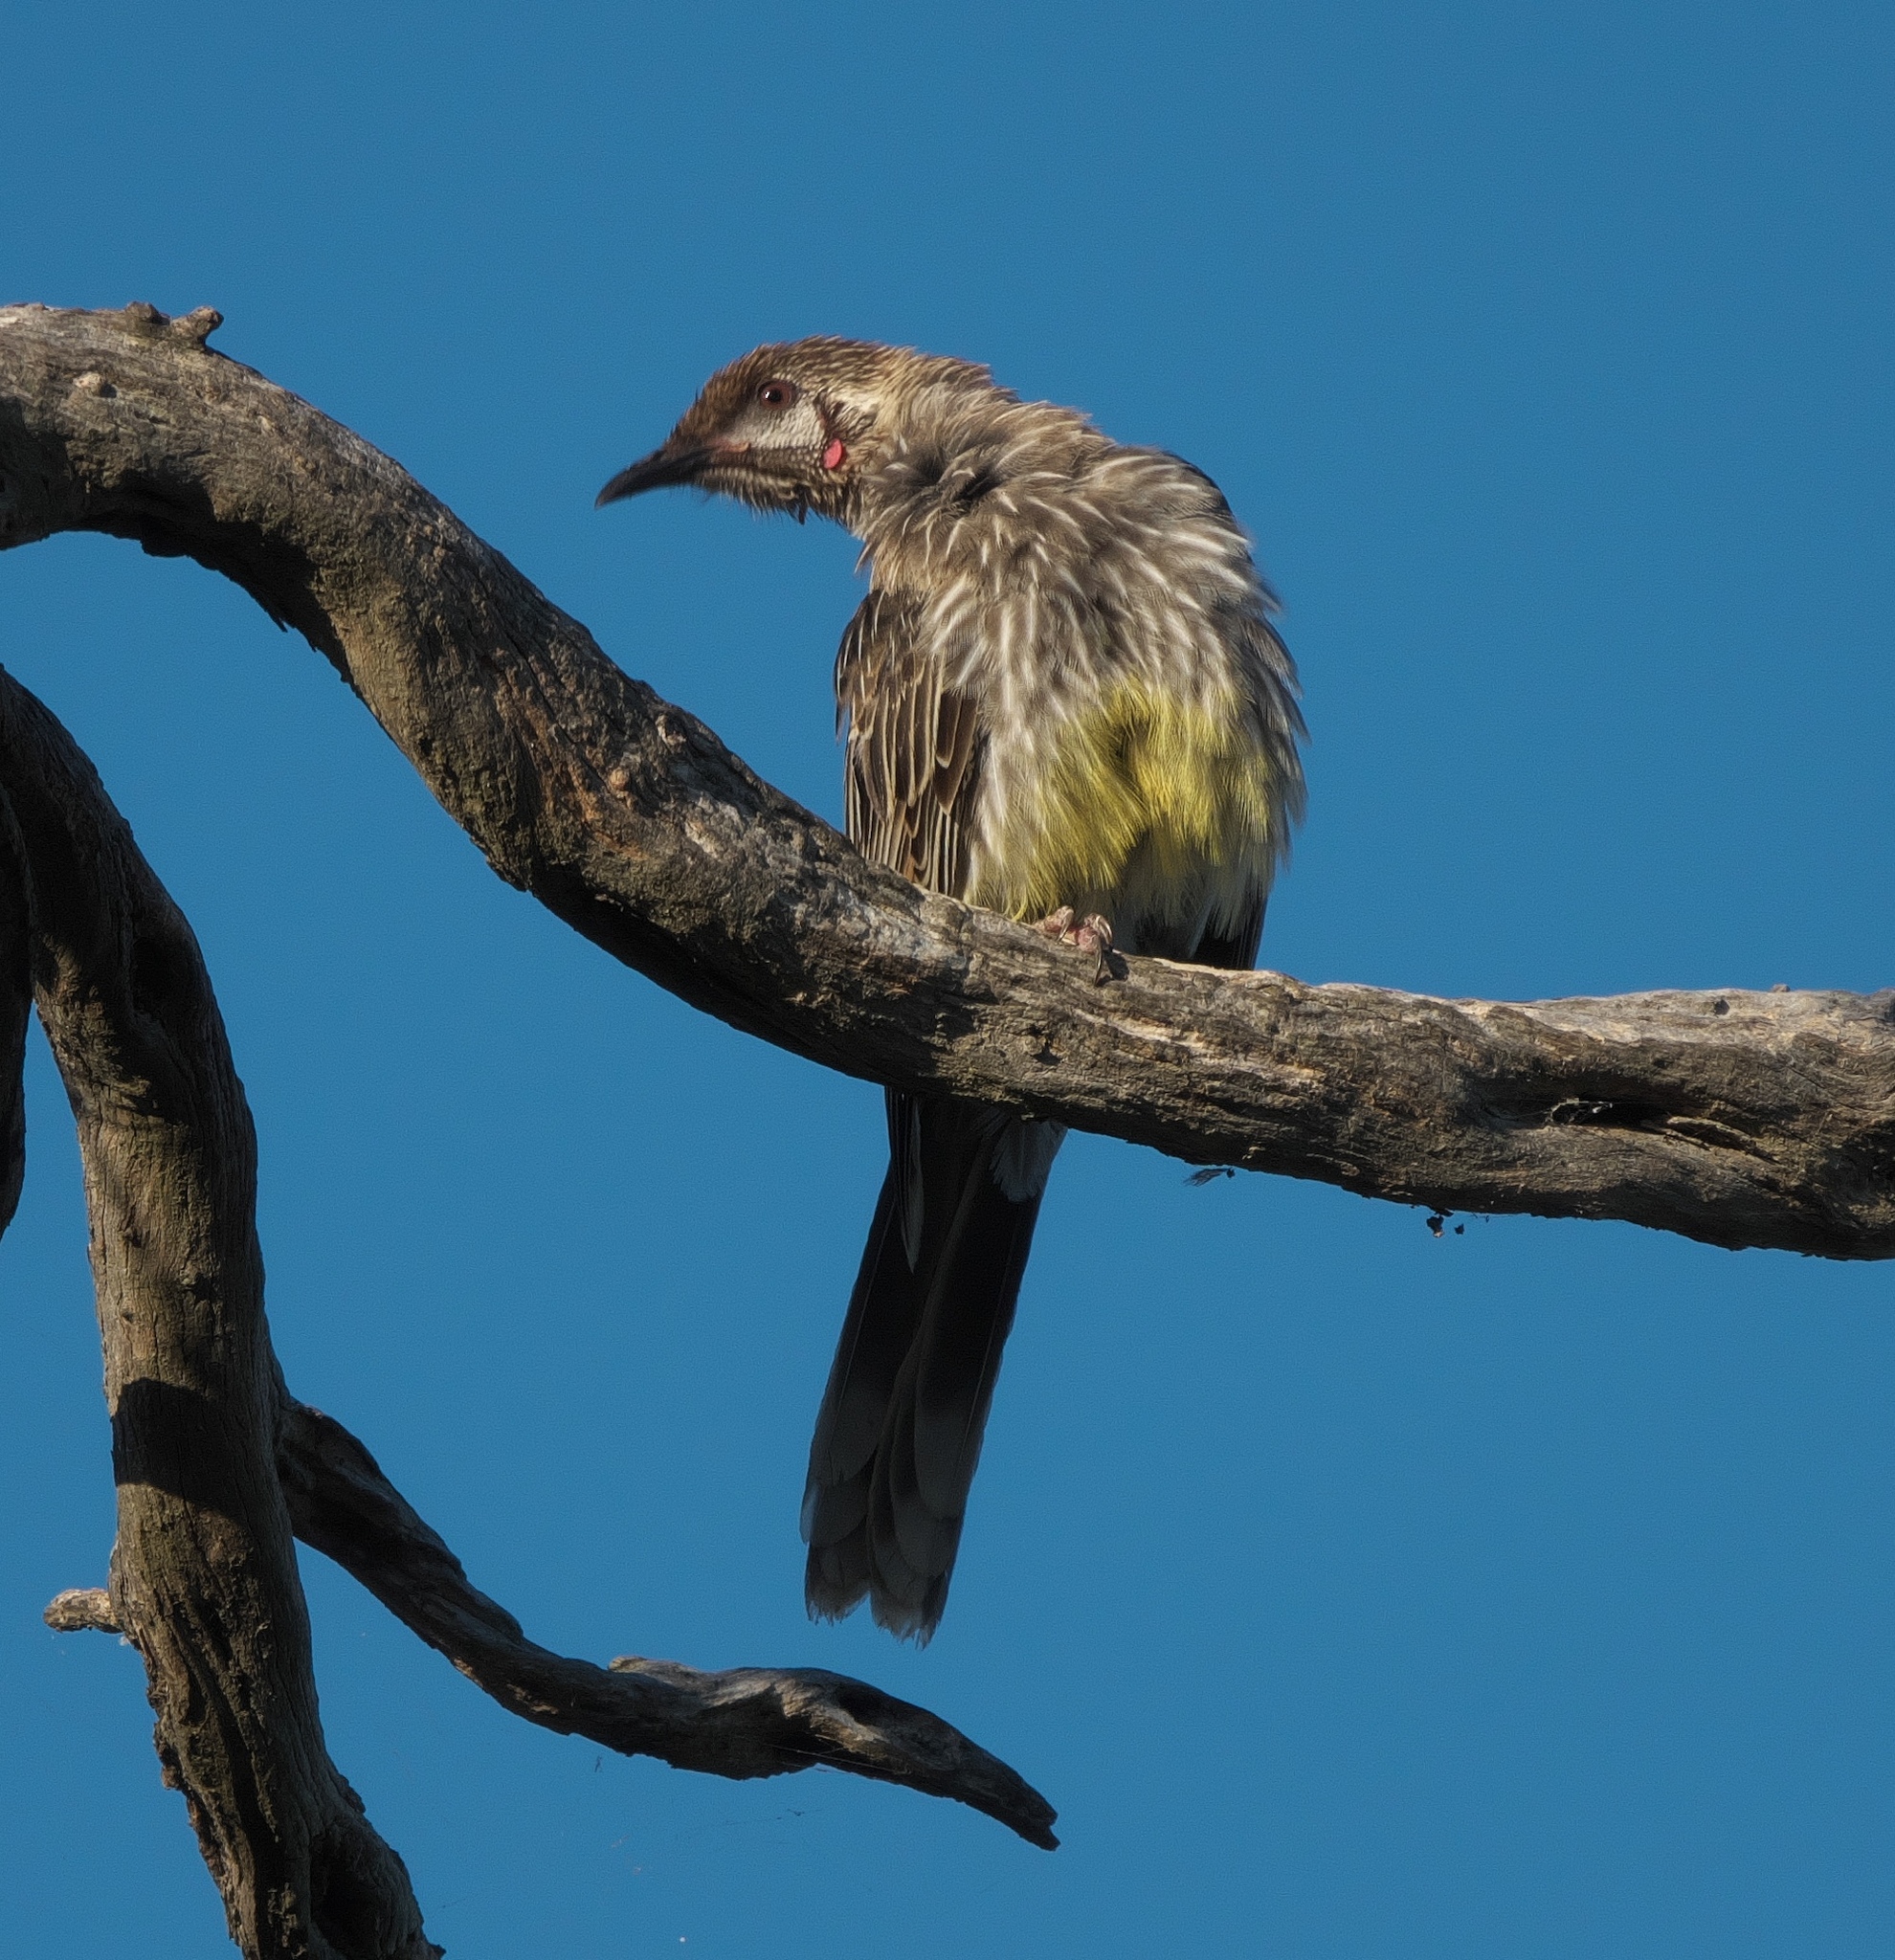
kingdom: Animalia
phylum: Chordata
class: Aves
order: Passeriformes
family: Meliphagidae
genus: Anthochaera
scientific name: Anthochaera carunculata
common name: Red wattlebird
